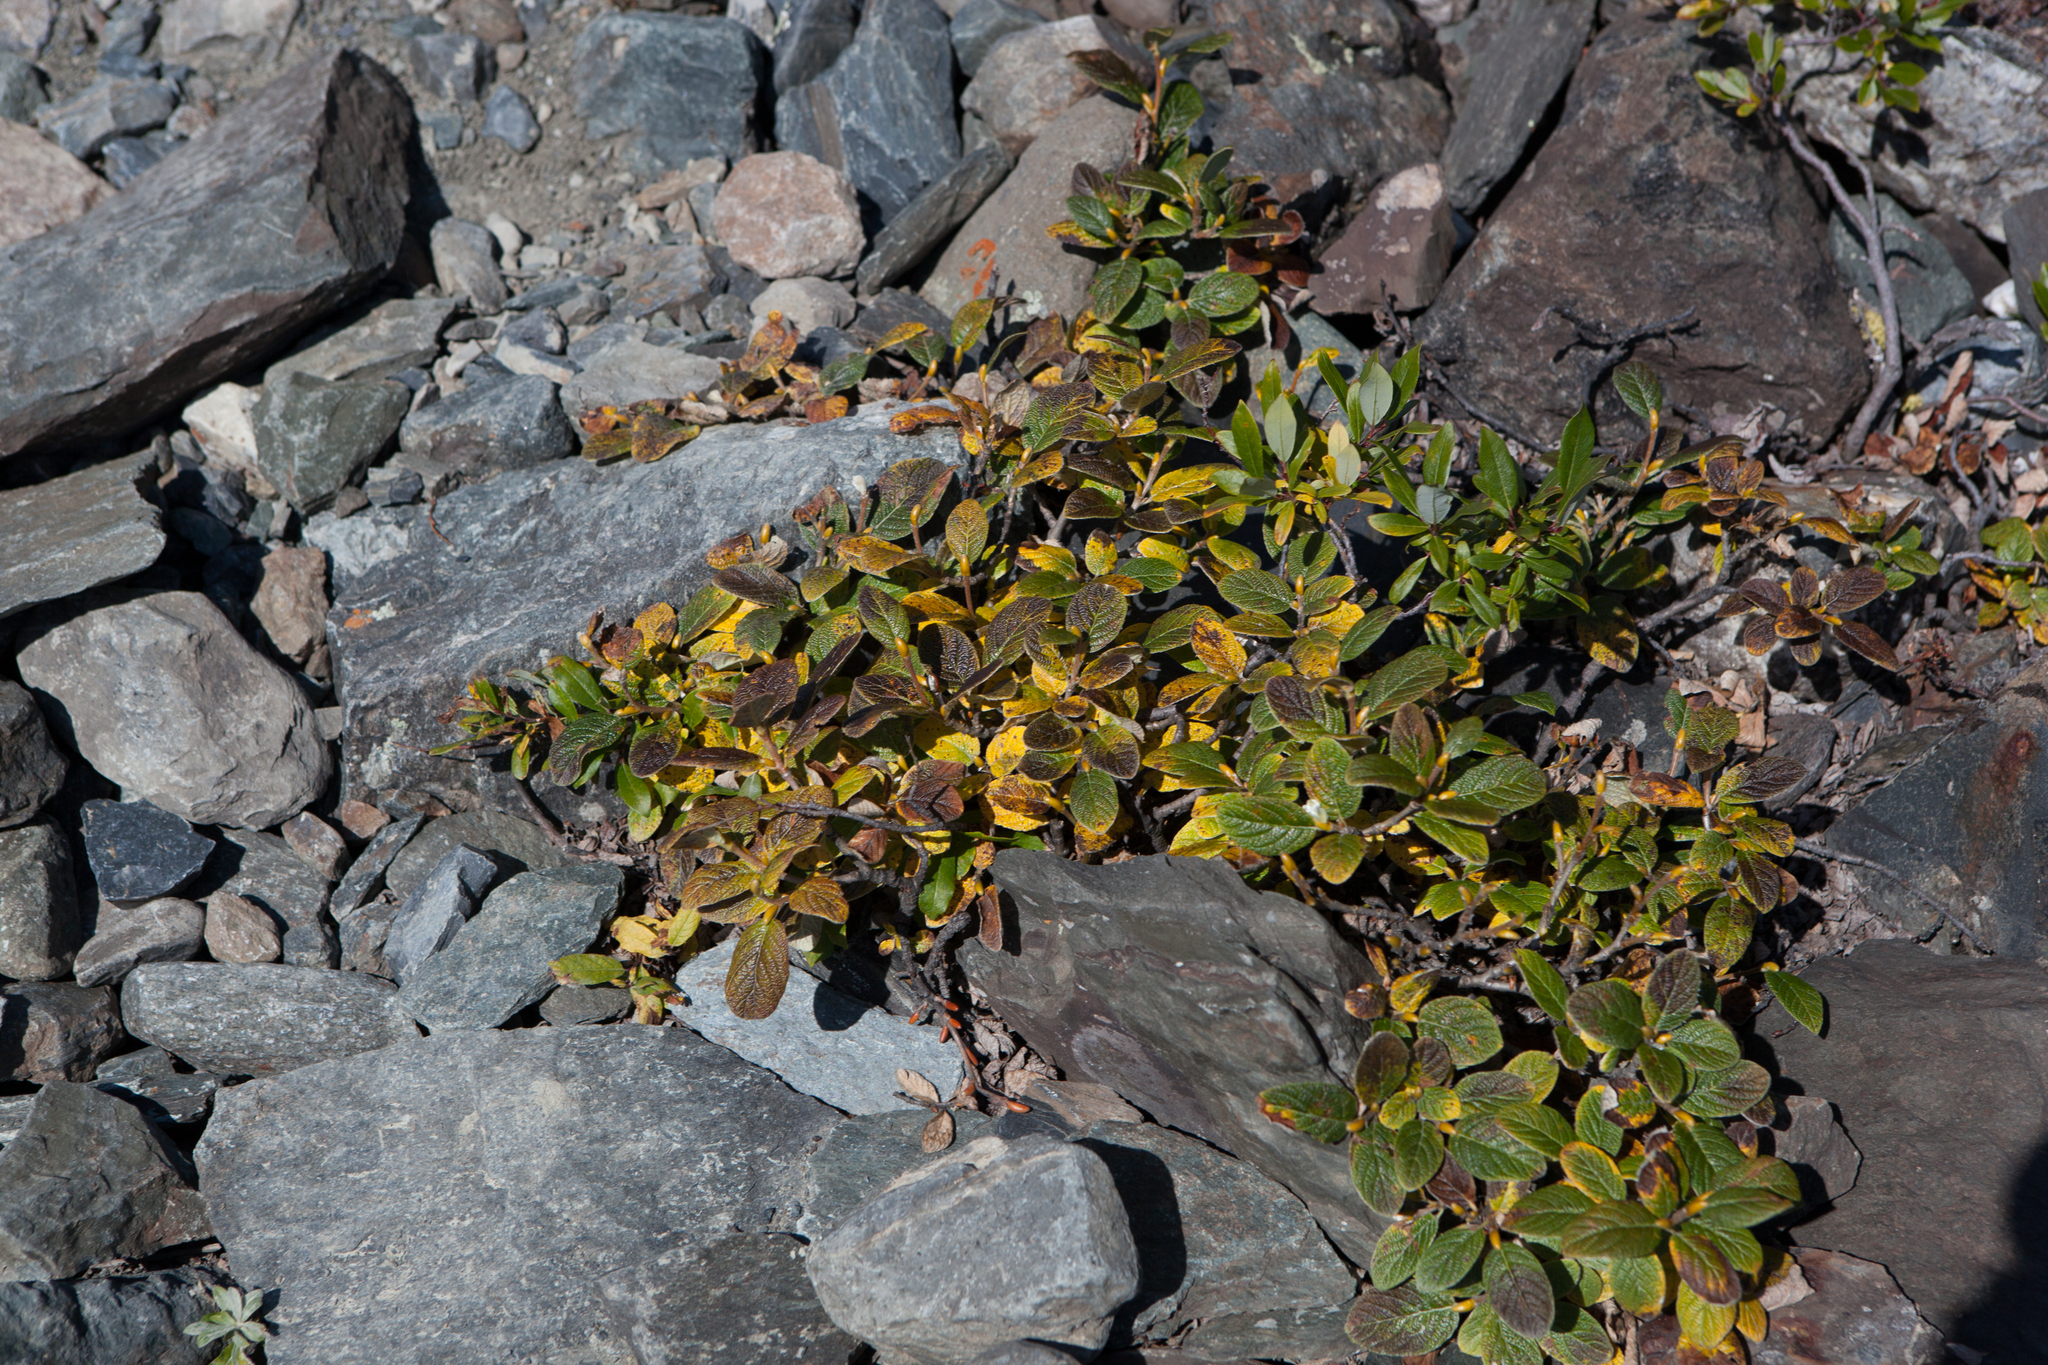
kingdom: Plantae
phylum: Tracheophyta
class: Magnoliopsida
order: Malpighiales
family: Salicaceae
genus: Salix
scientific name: Salix vestita
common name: Hairy willow
